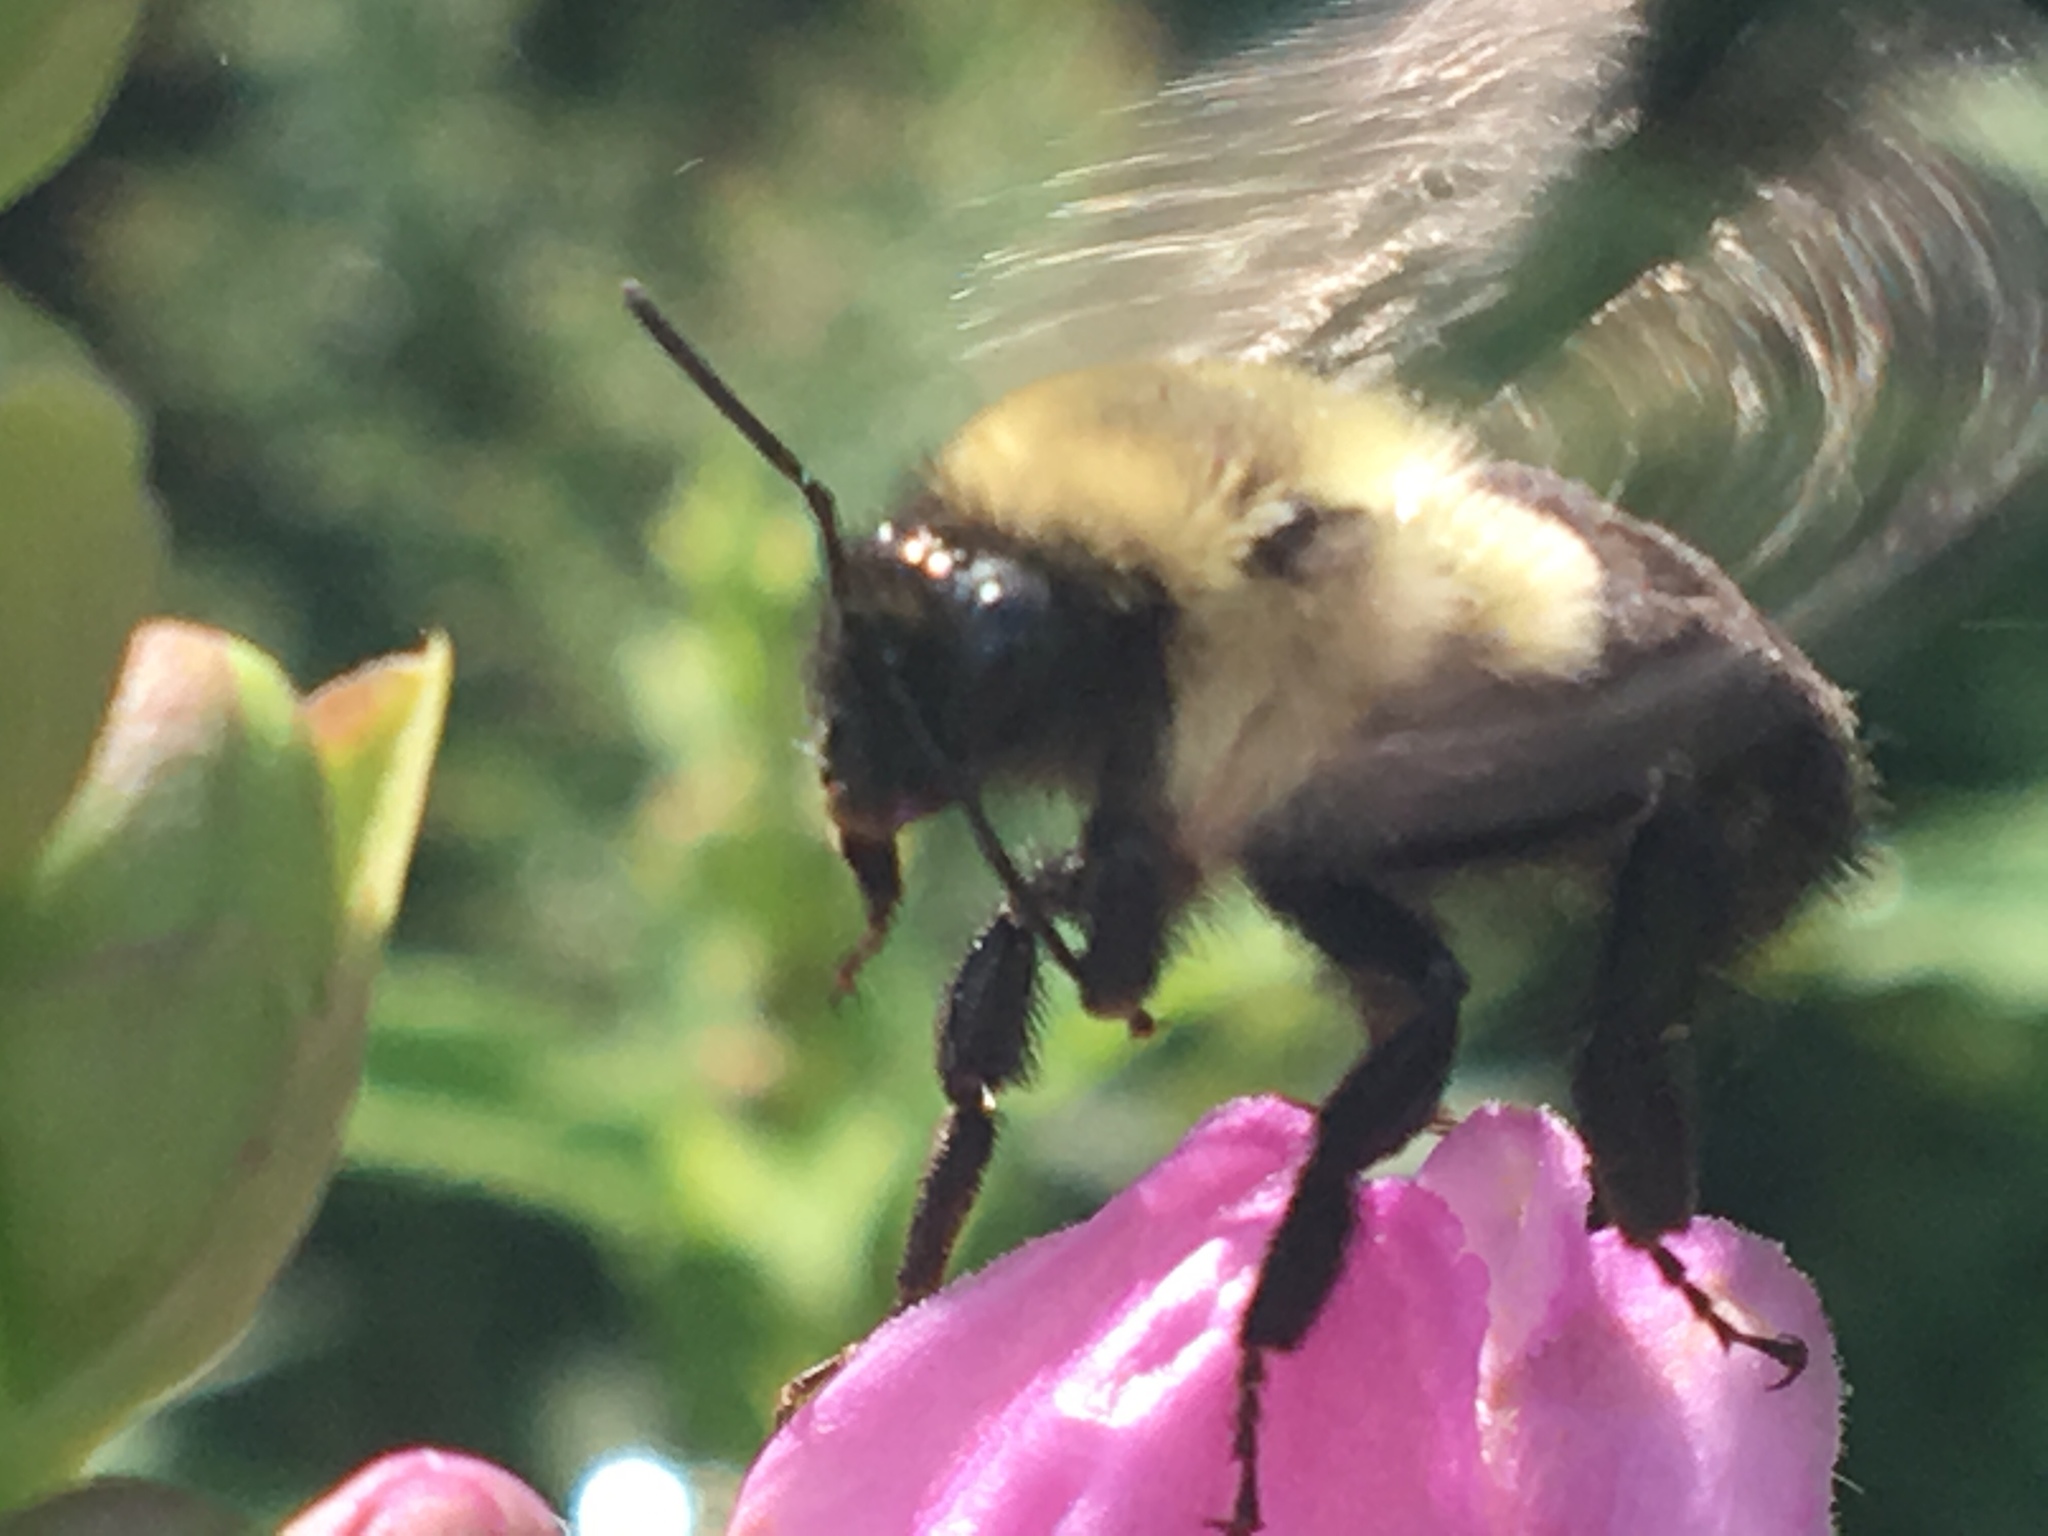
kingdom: Animalia
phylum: Arthropoda
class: Insecta
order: Hymenoptera
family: Apidae
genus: Bombus
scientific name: Bombus impatiens
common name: Common eastern bumble bee
